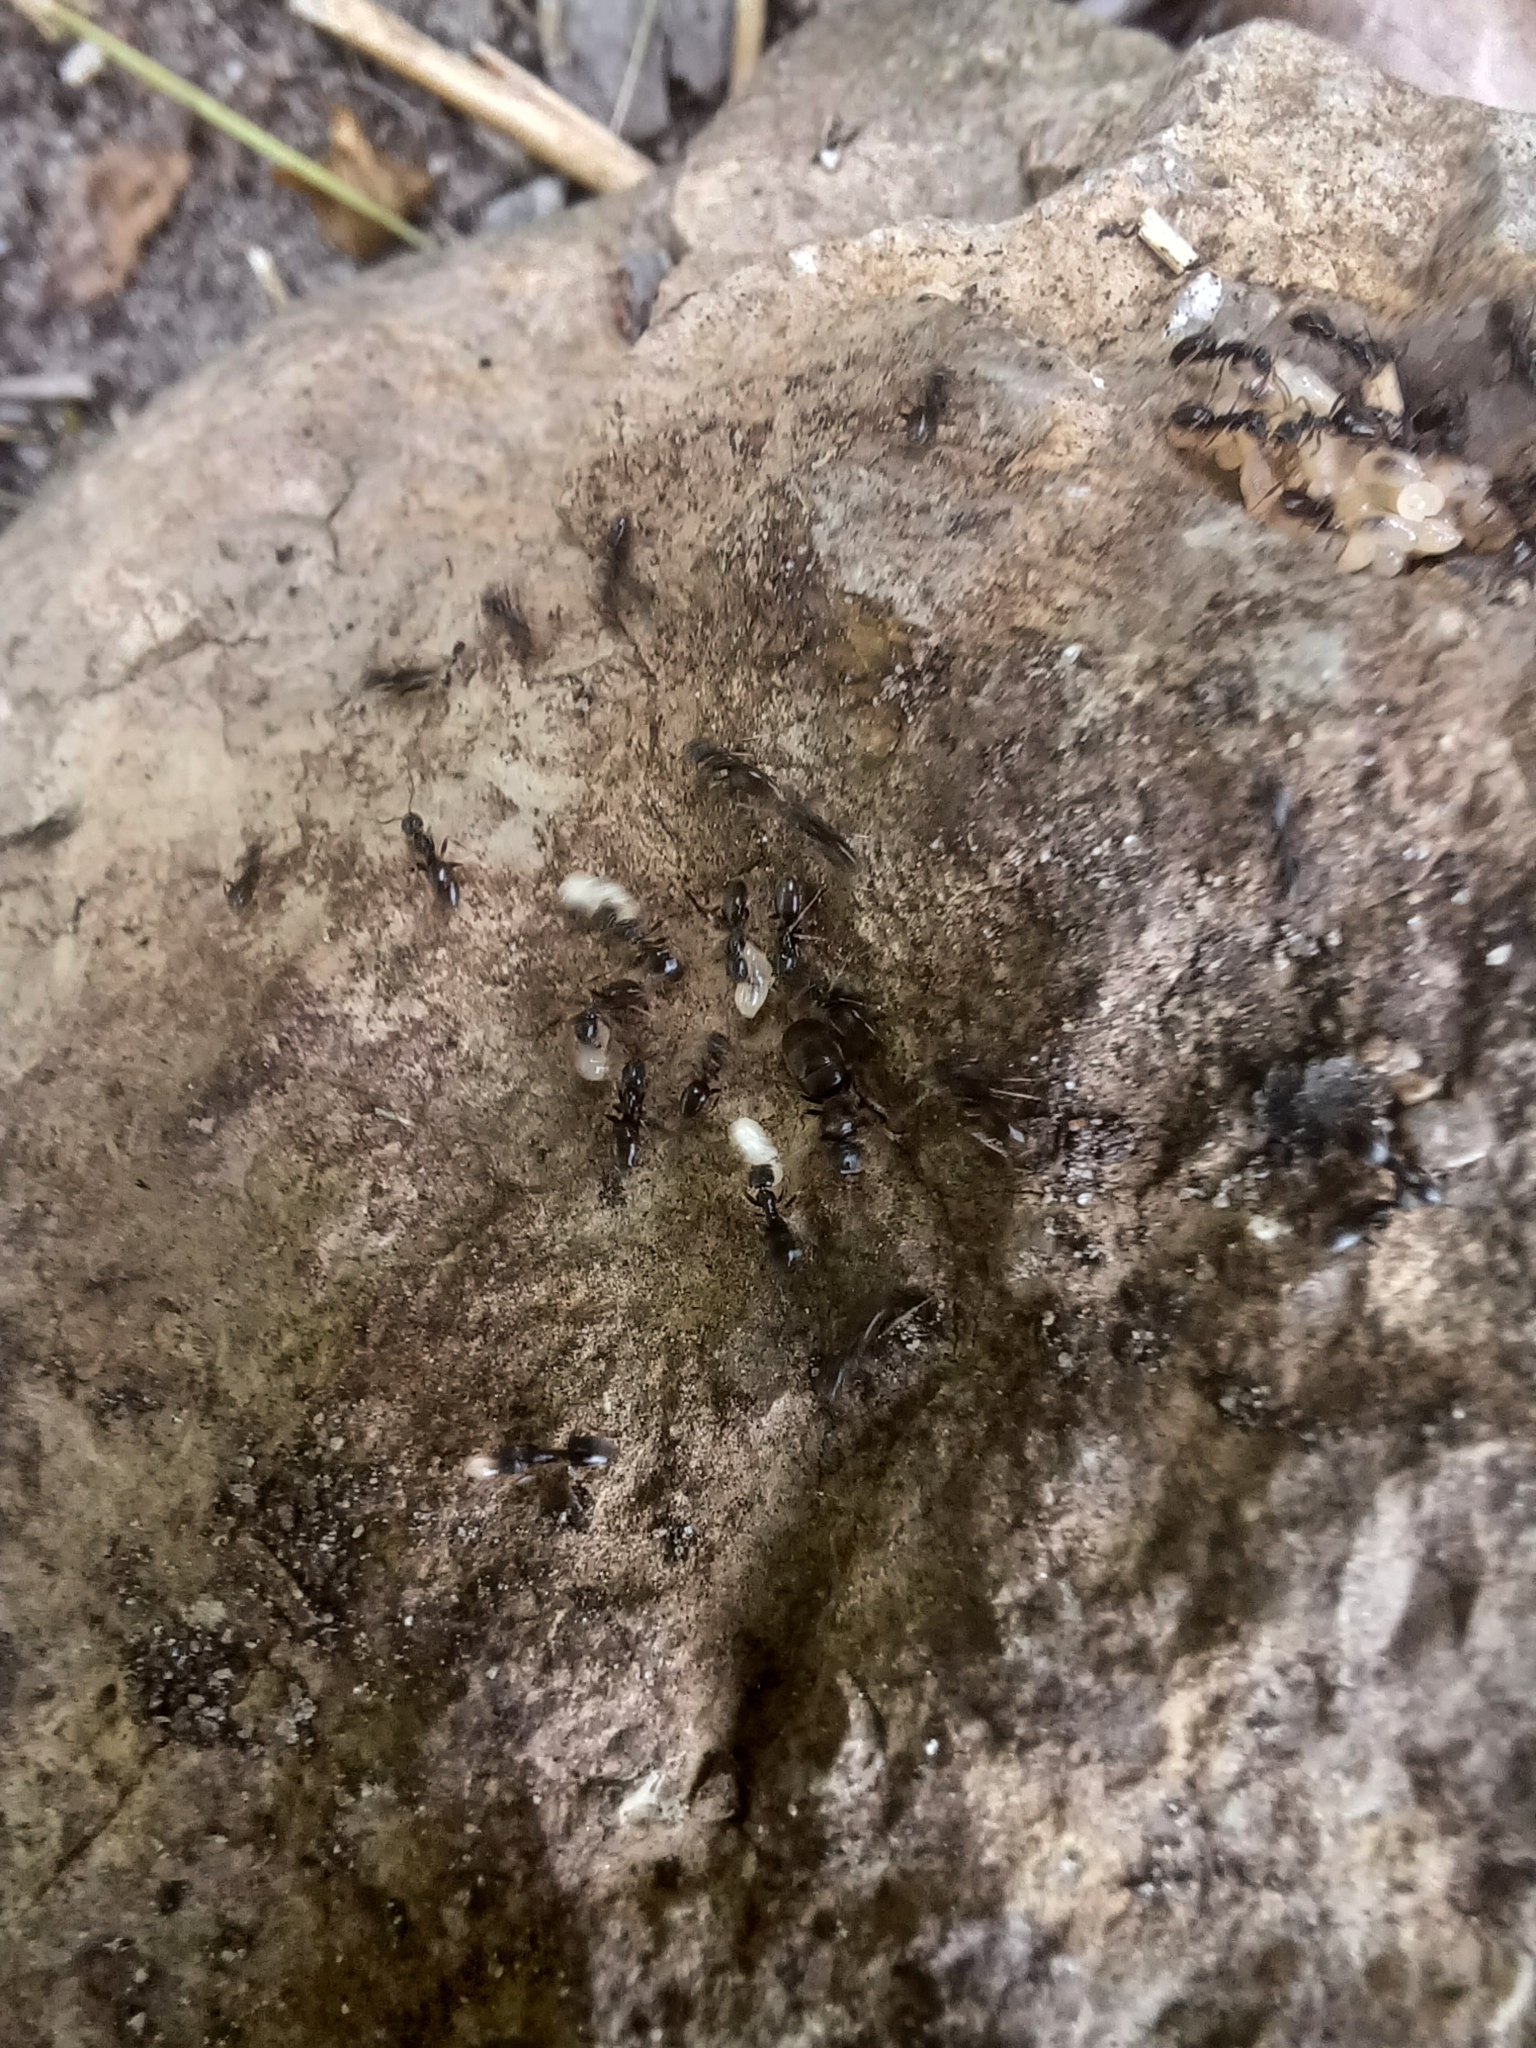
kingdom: Animalia
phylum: Arthropoda
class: Insecta
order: Hymenoptera
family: Formicidae
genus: Tapinoma
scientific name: Tapinoma sessile
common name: Odorous house ant
